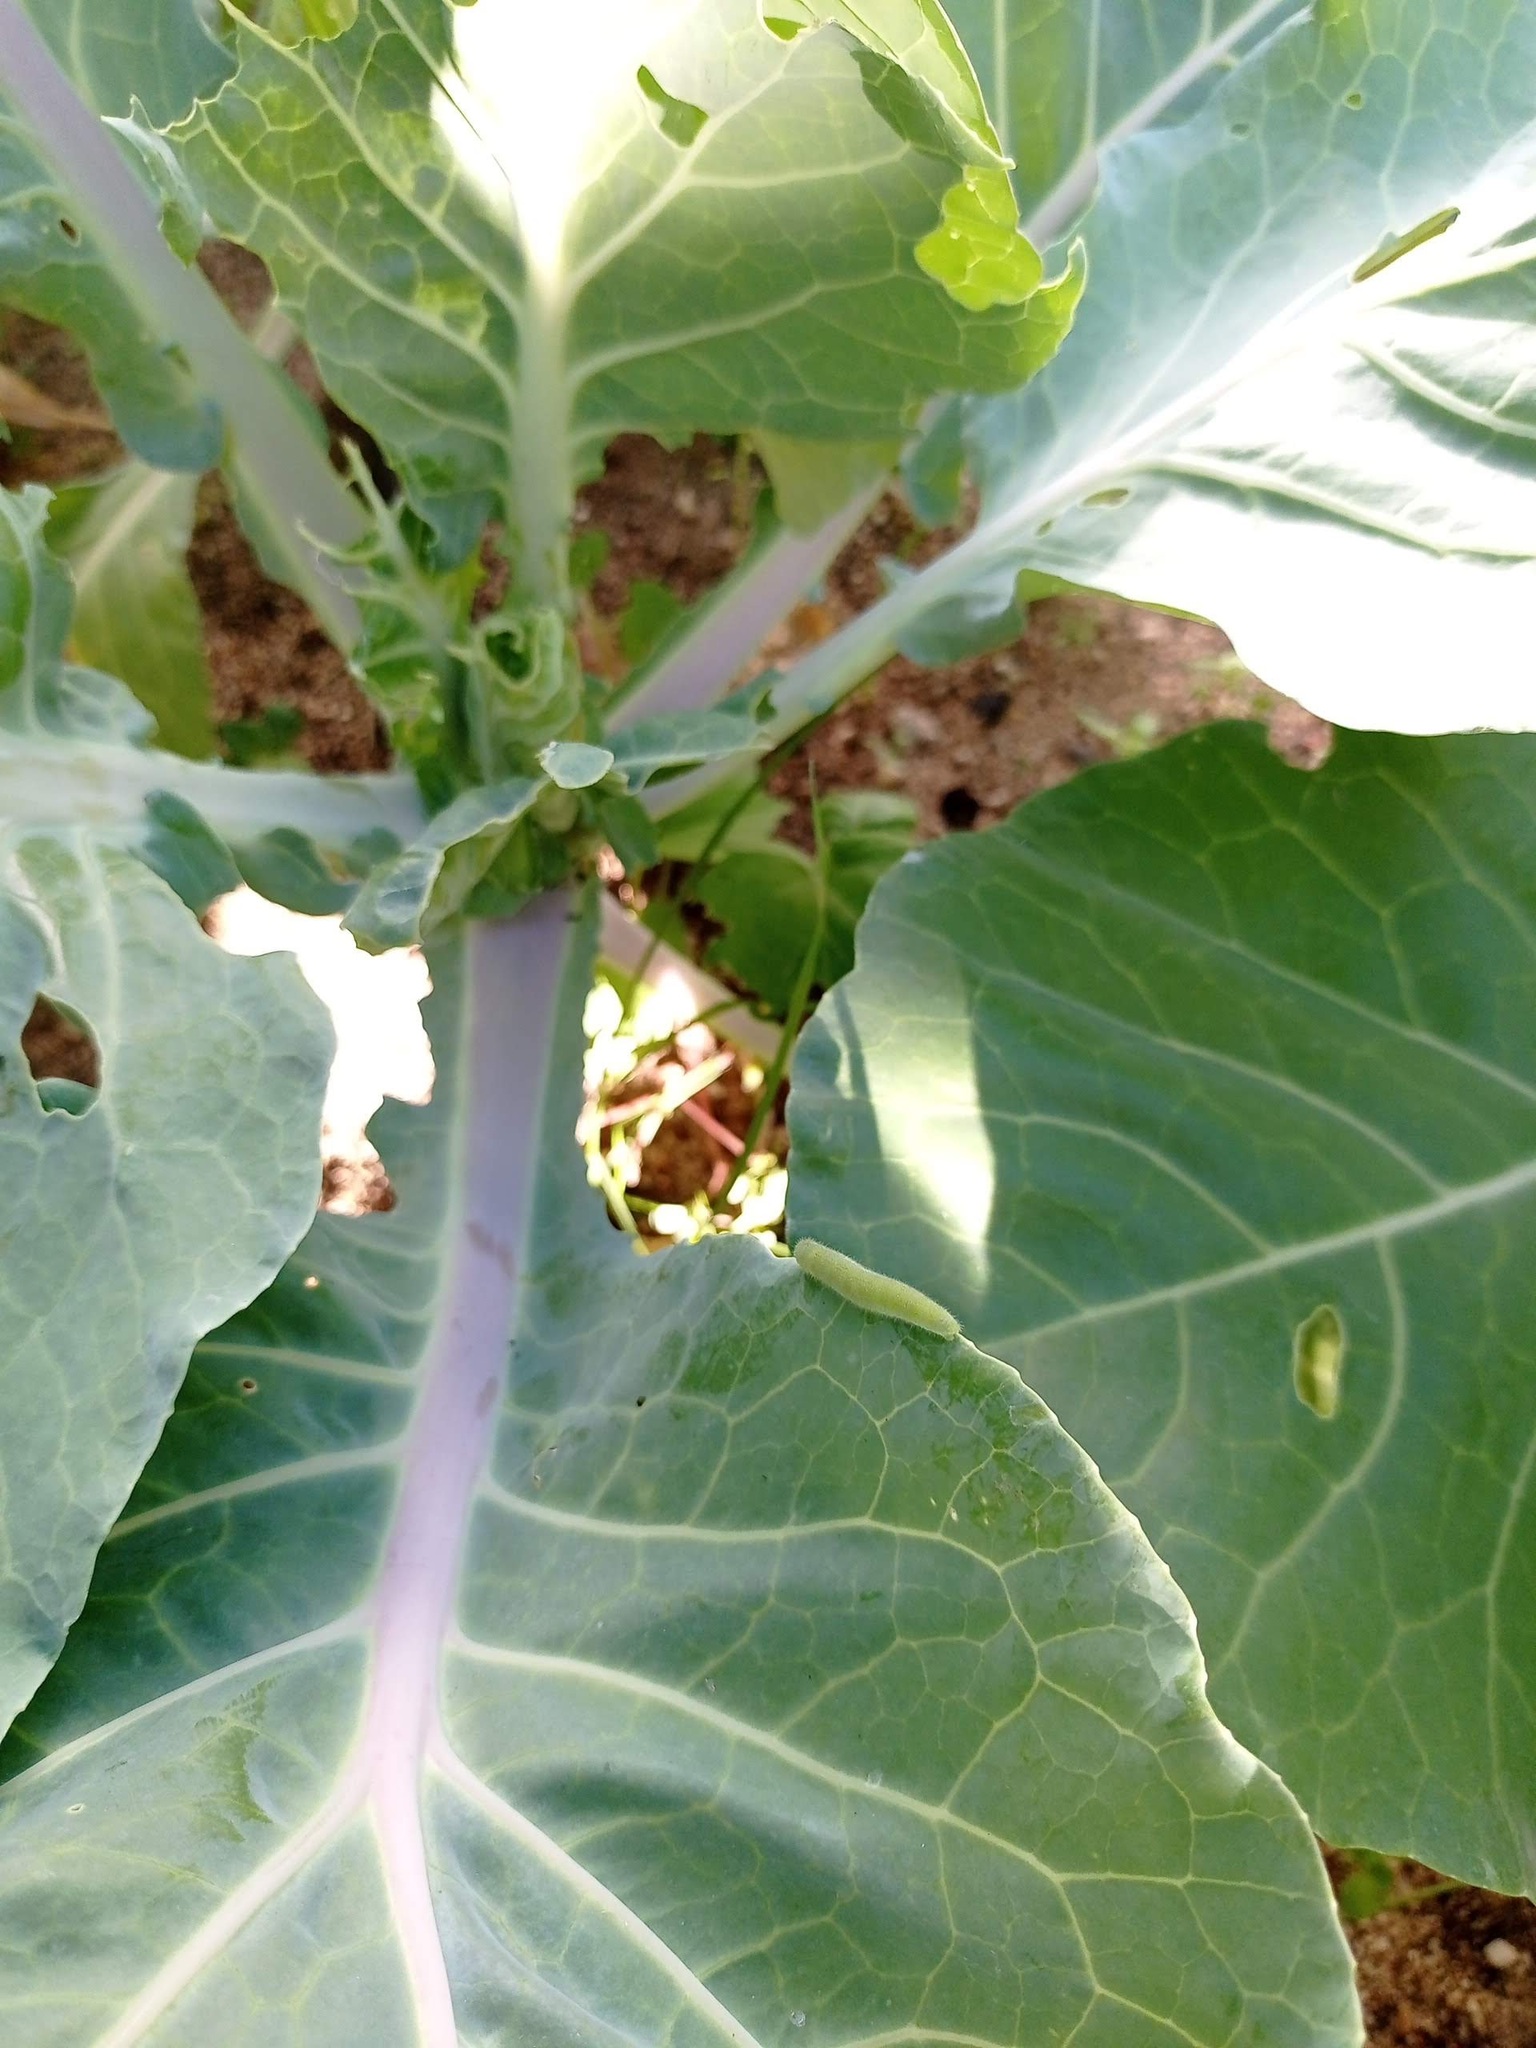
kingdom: Animalia
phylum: Arthropoda
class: Insecta
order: Lepidoptera
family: Pieridae
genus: Pieris
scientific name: Pieris rapae
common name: Small white
